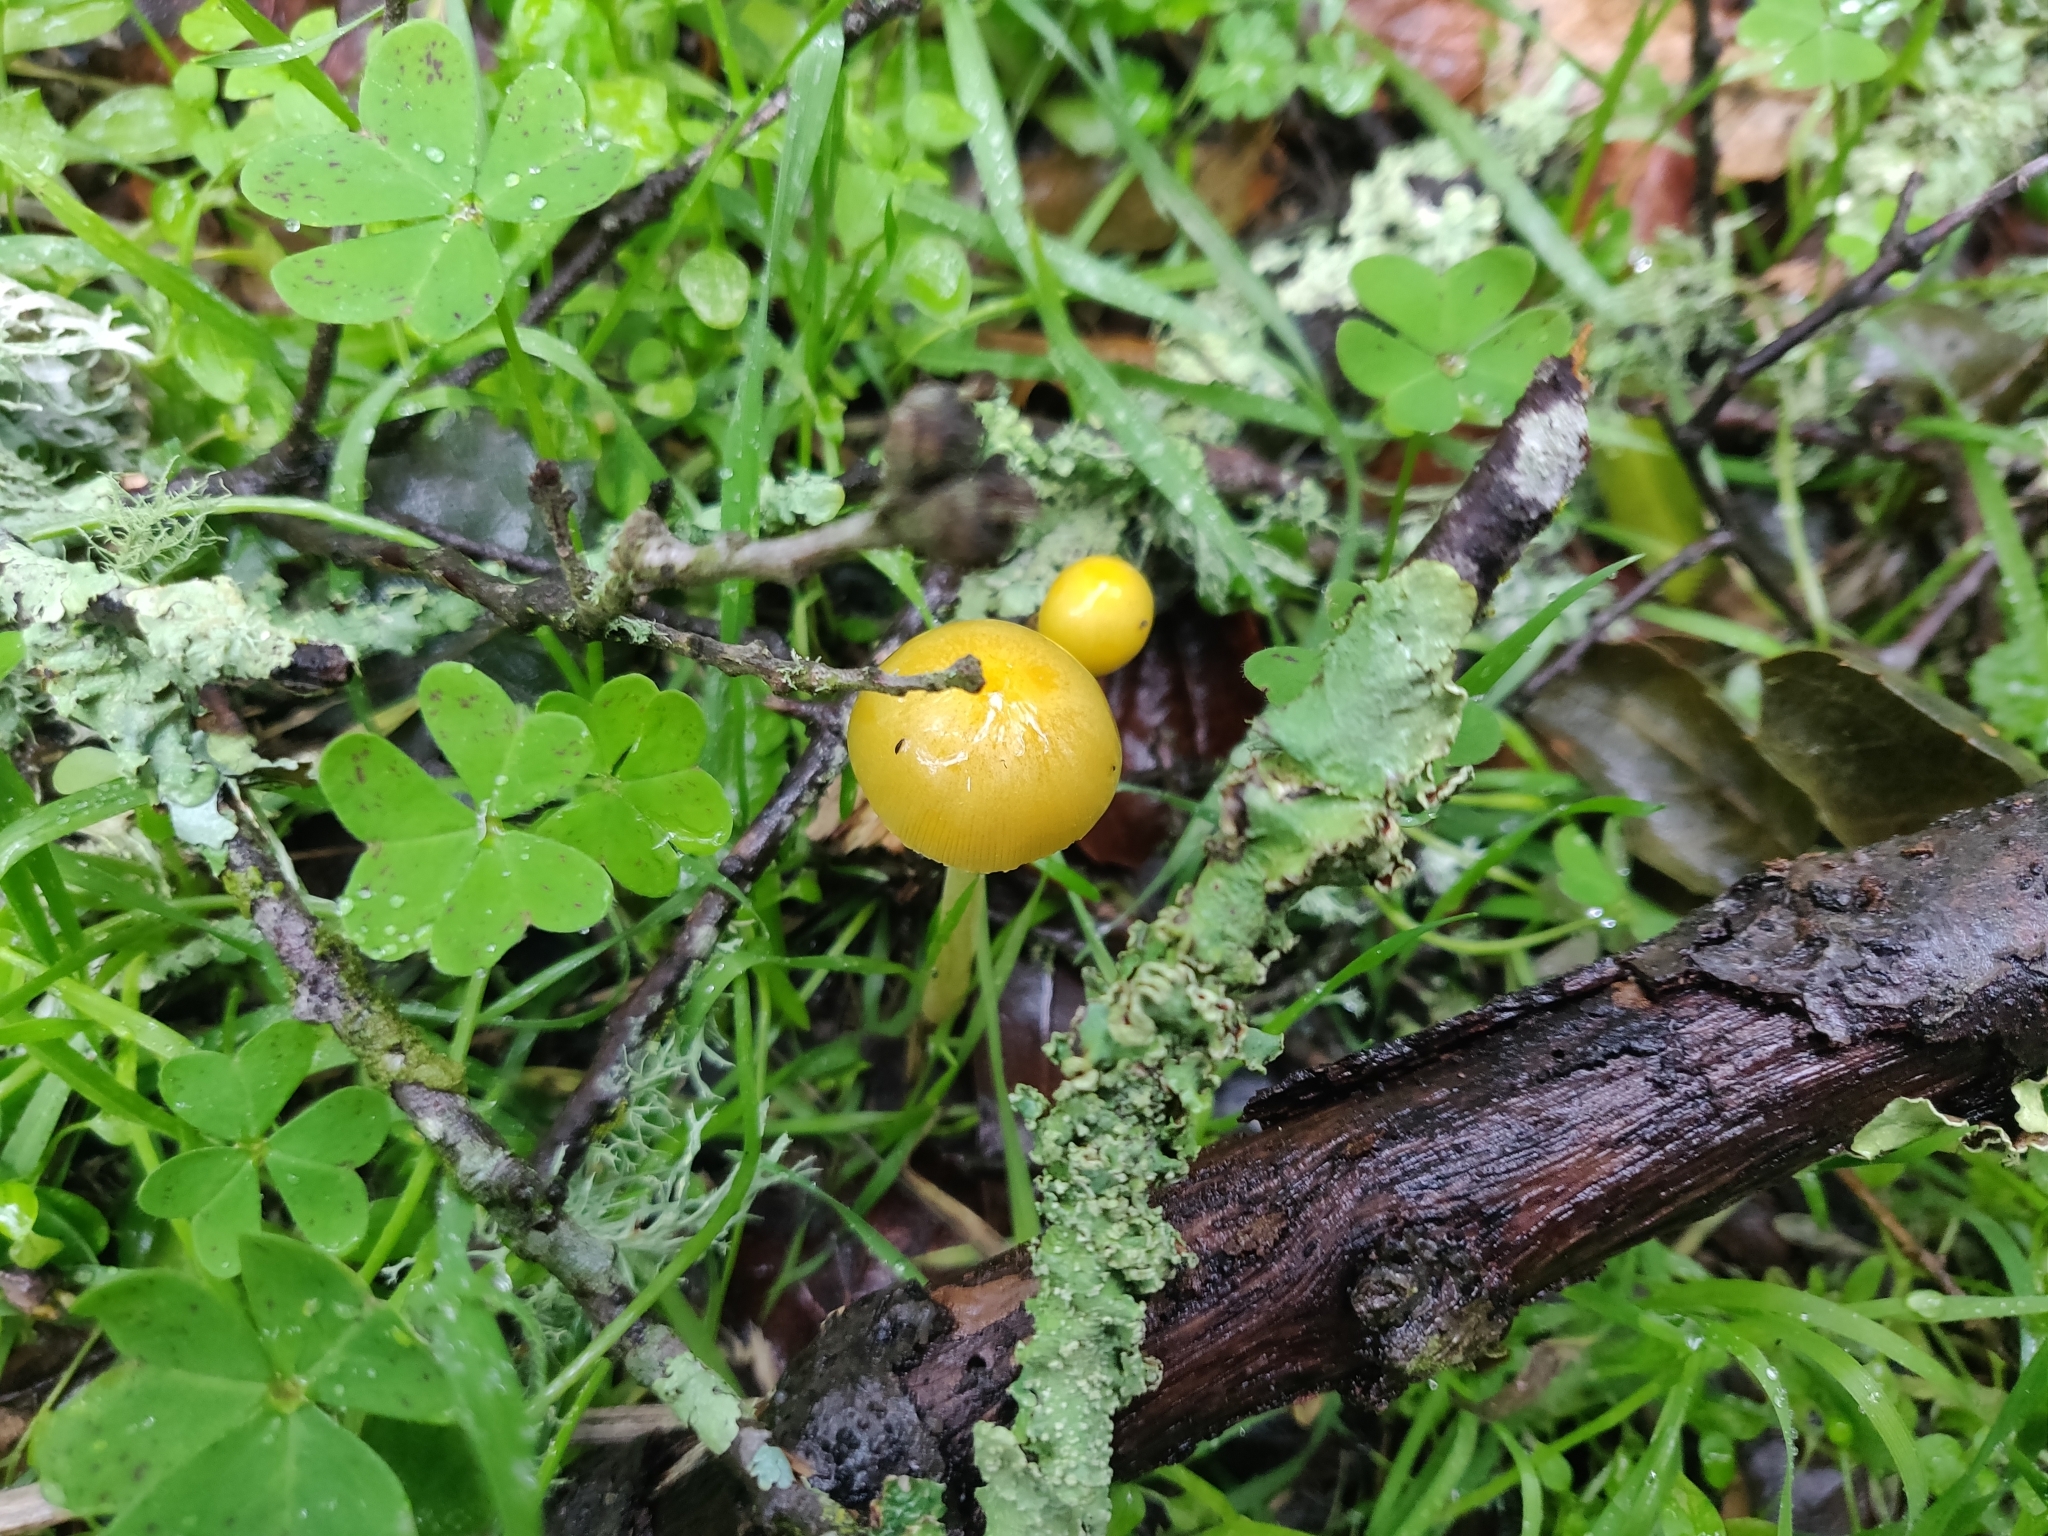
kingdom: Fungi
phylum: Basidiomycota
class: Agaricomycetes
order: Agaricales
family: Bolbitiaceae
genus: Bolbitius
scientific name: Bolbitius titubans
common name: Yellow fieldcap
